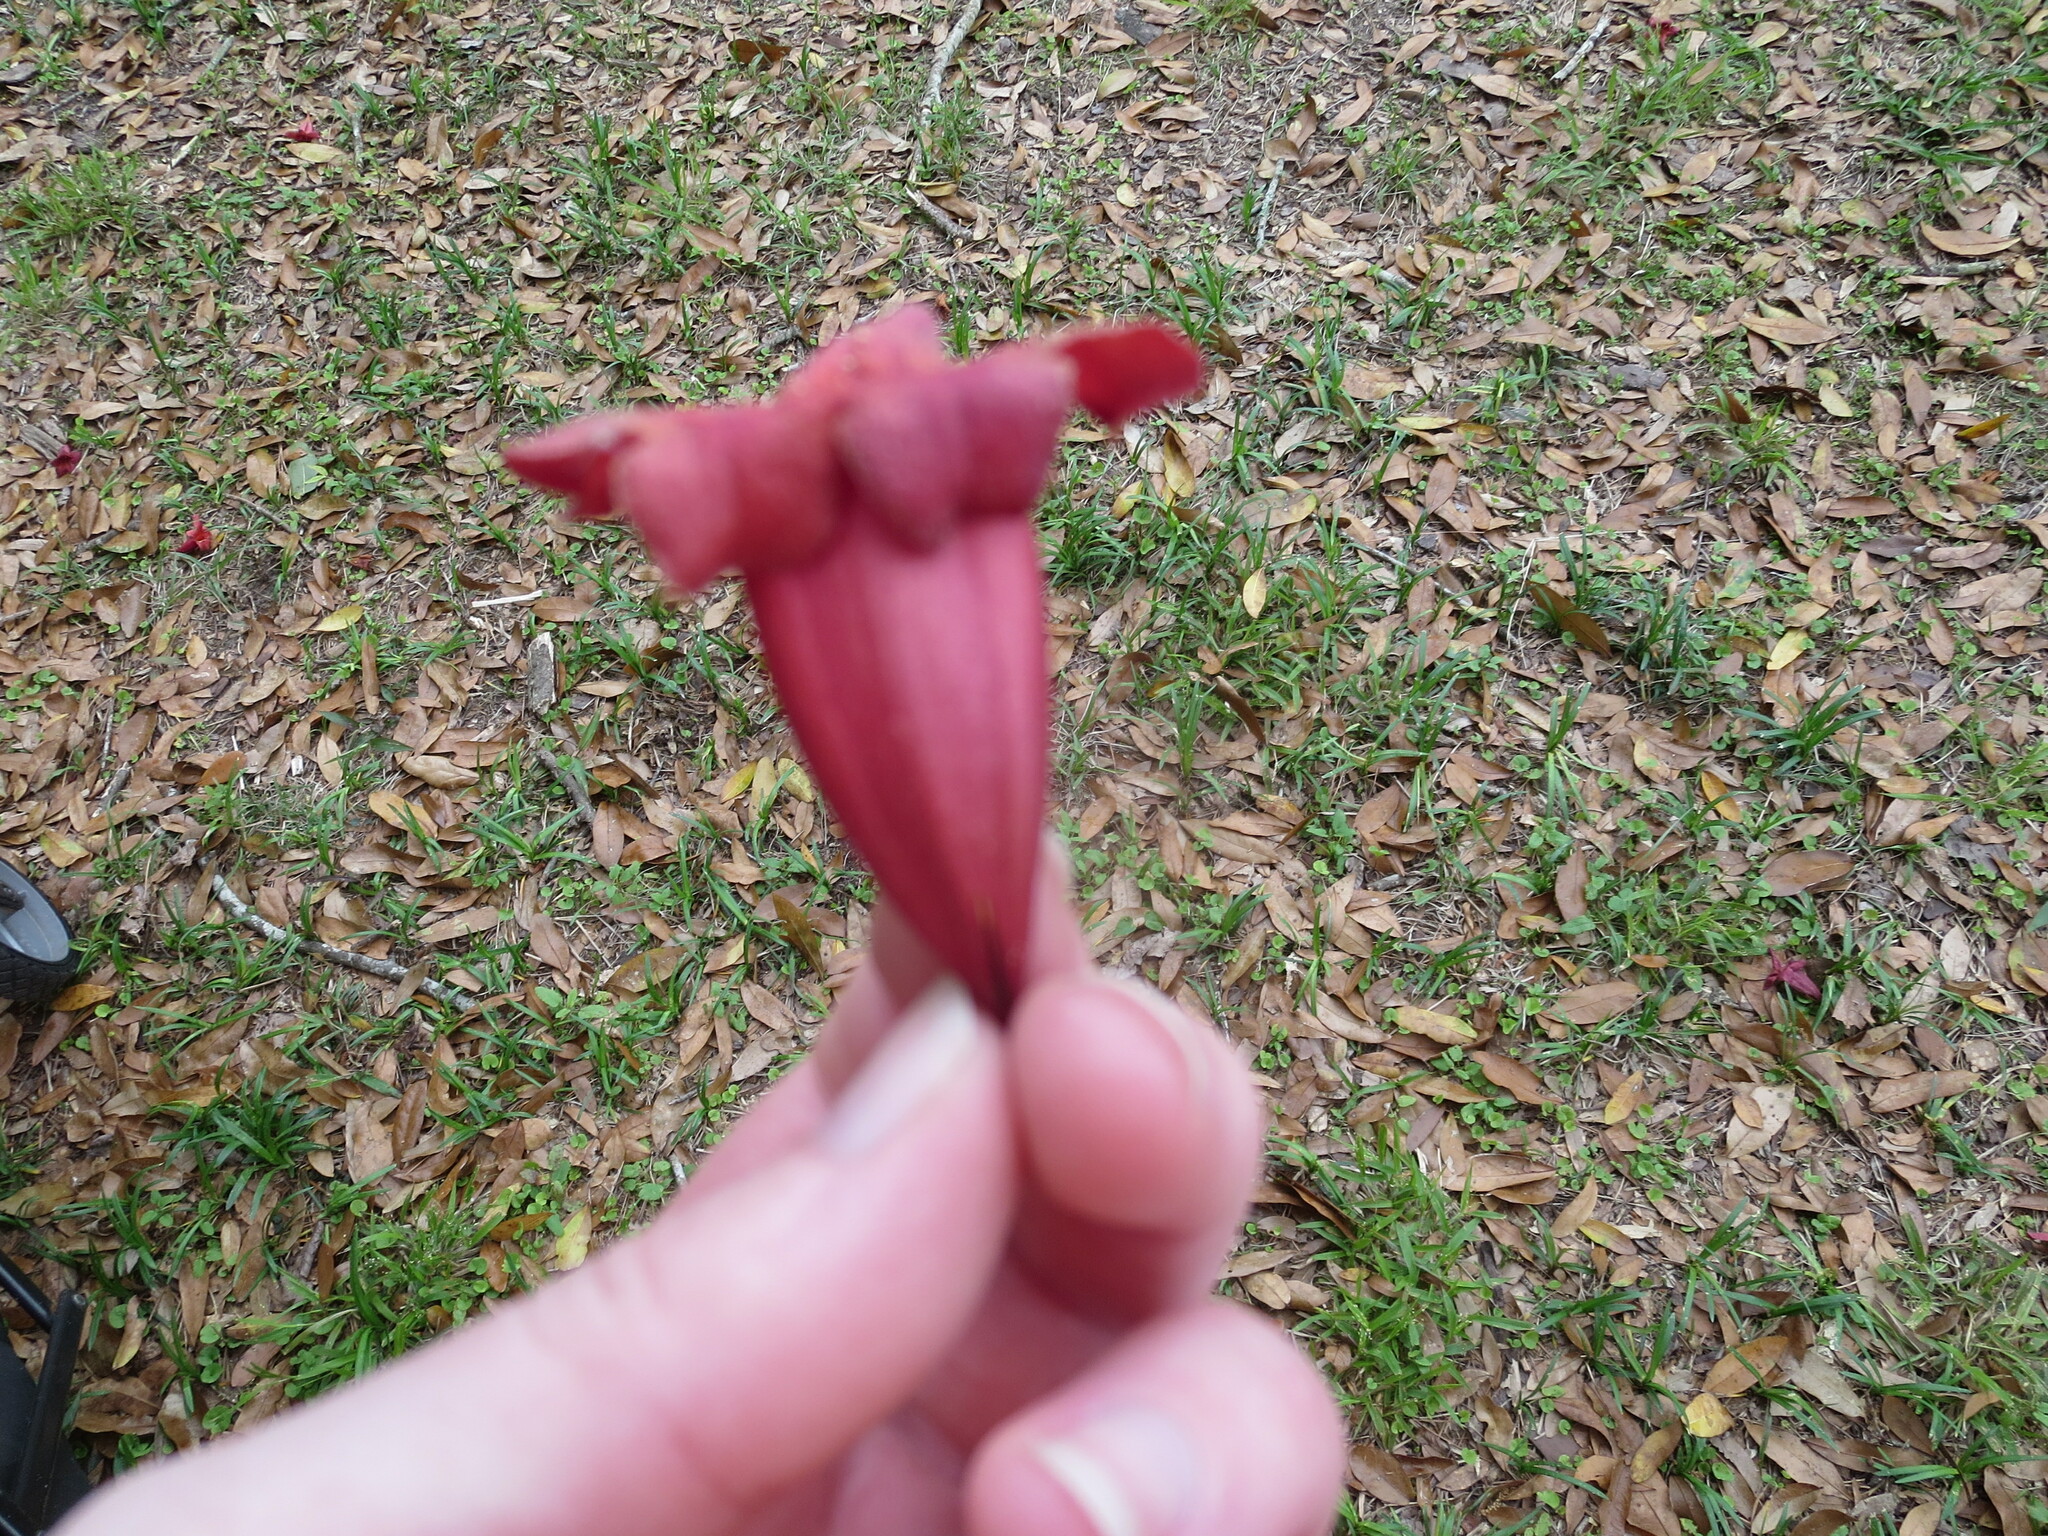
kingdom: Plantae
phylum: Tracheophyta
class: Magnoliopsida
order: Lamiales
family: Bignoniaceae
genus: Bignonia
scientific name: Bignonia capreolata
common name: Crossvine
